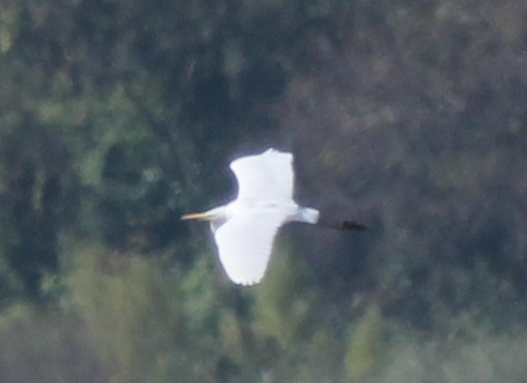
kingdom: Animalia
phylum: Chordata
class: Aves
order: Pelecaniformes
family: Ardeidae
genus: Ardea
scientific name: Ardea alba
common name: Great egret
